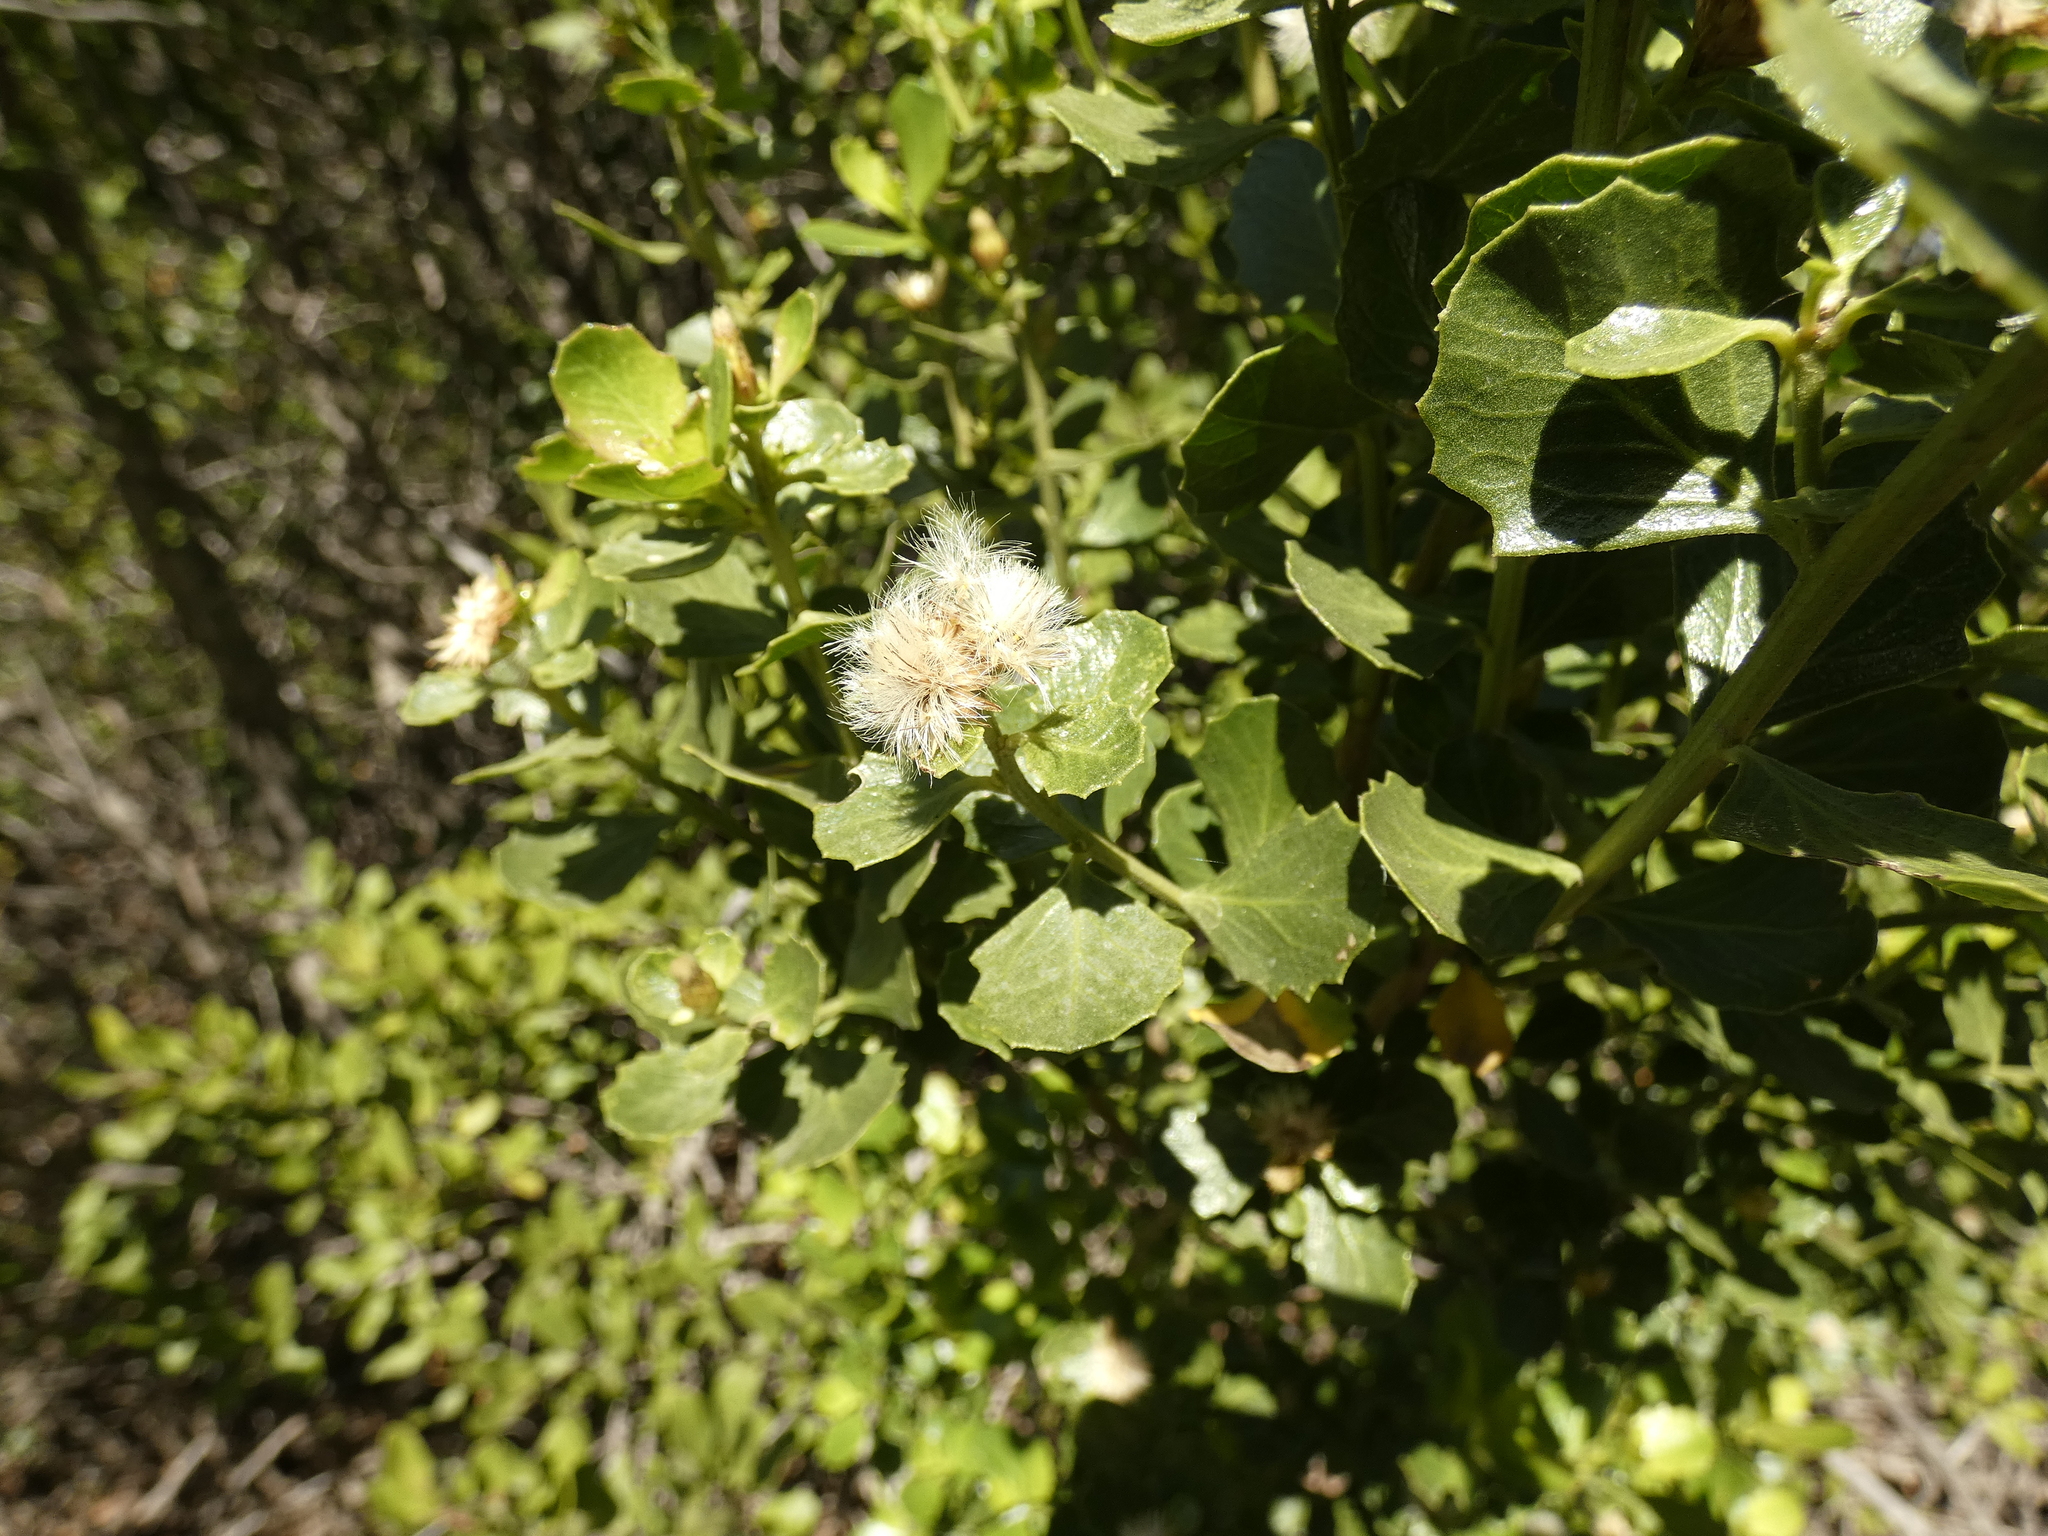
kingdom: Plantae
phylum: Tracheophyta
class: Magnoliopsida
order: Asterales
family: Asteraceae
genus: Baccharis
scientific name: Baccharis rhomboidalis
